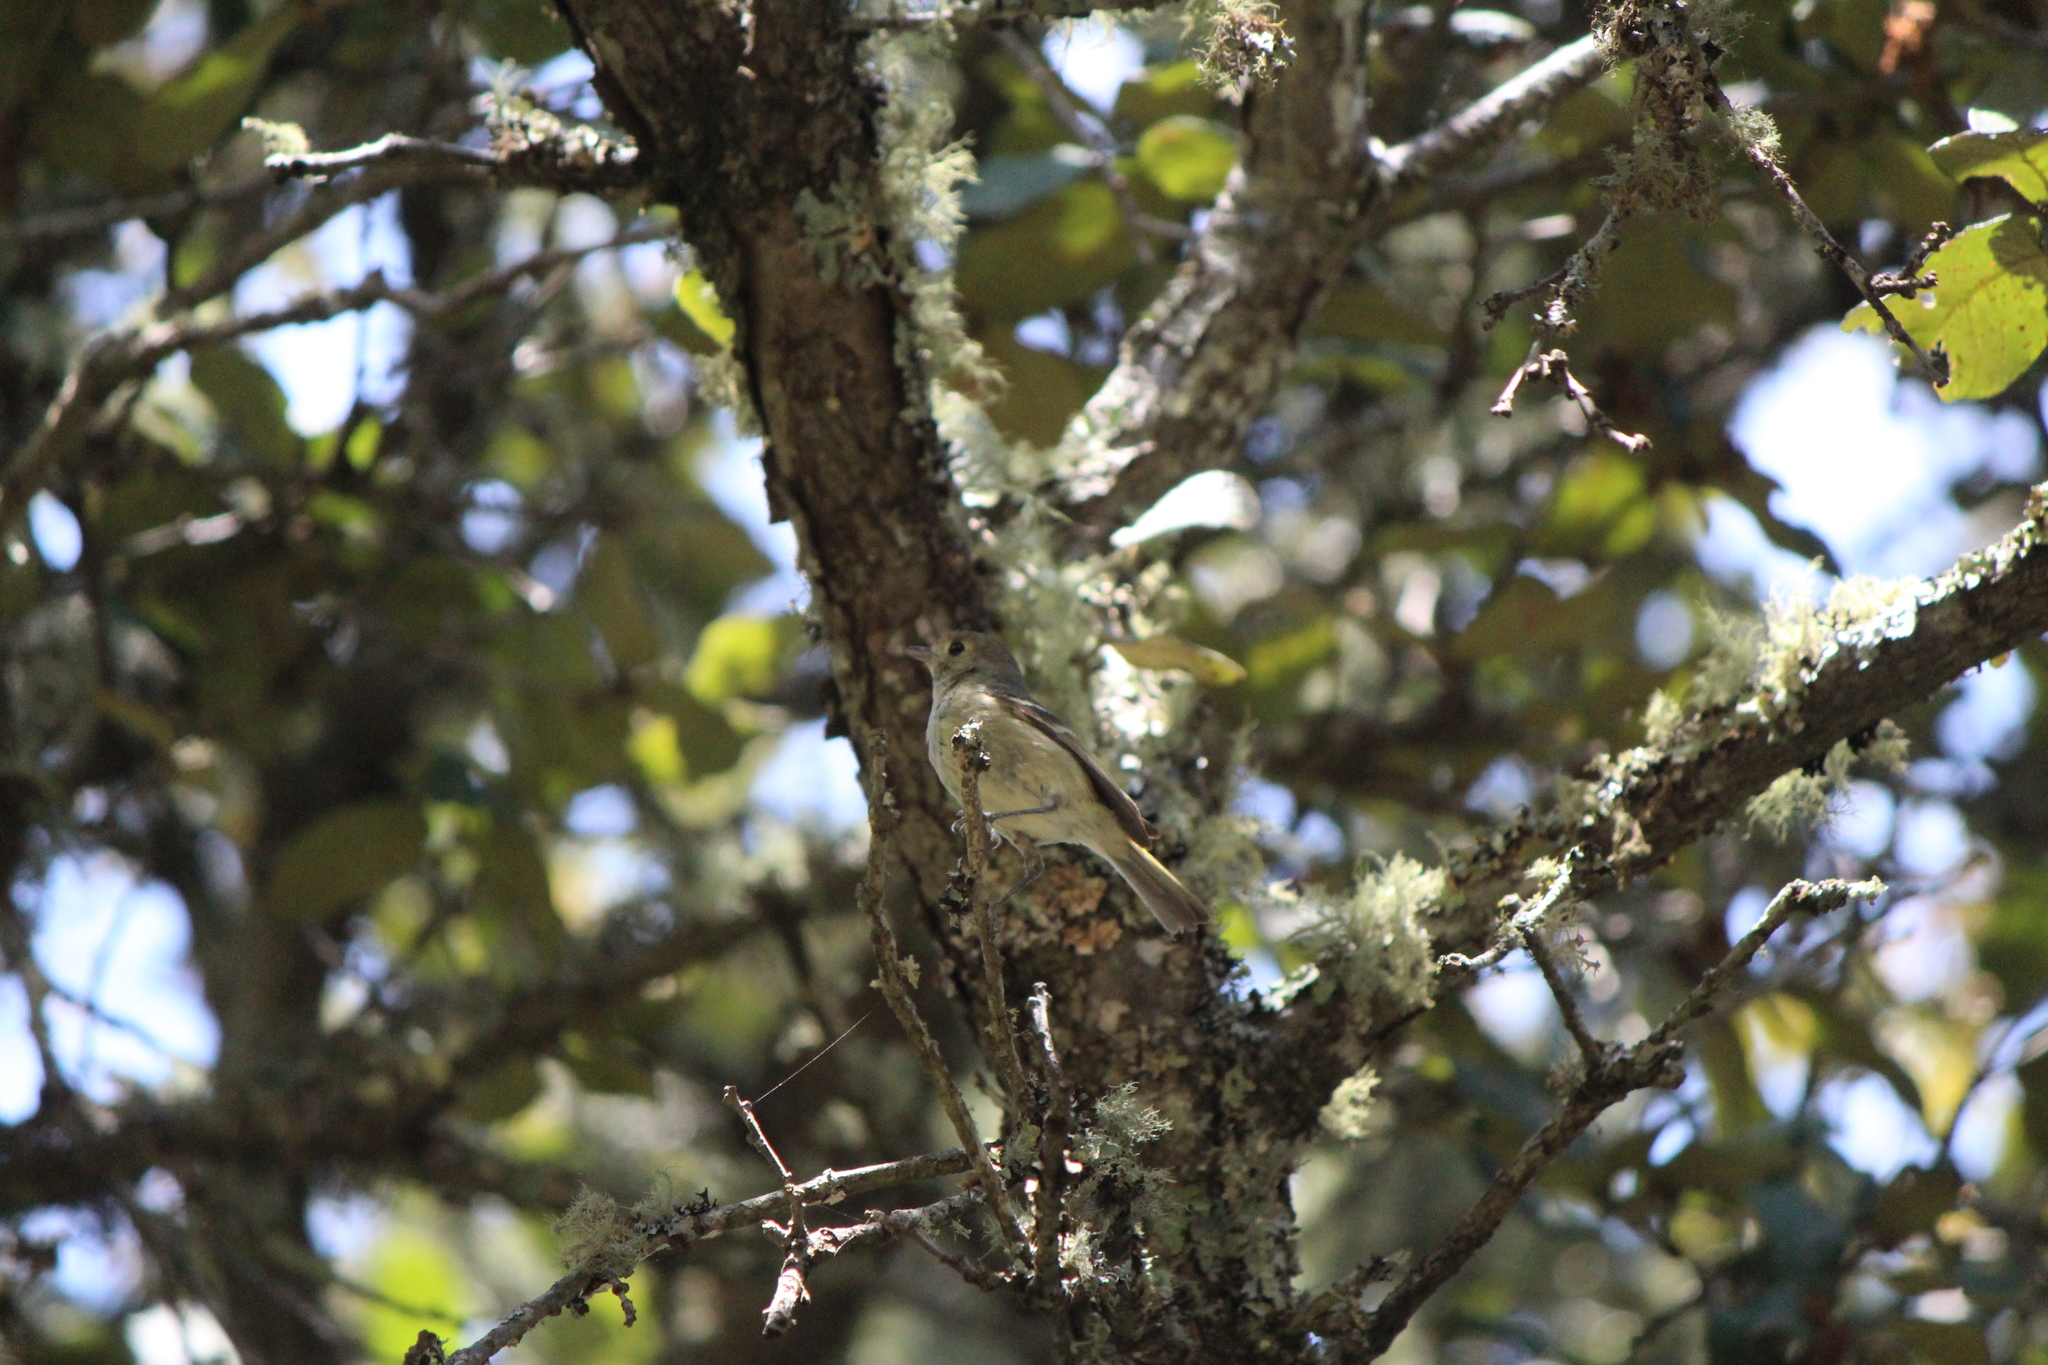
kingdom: Animalia
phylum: Chordata
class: Aves
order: Passeriformes
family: Vireonidae
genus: Vireo
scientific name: Vireo huttoni
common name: Hutton's vireo
